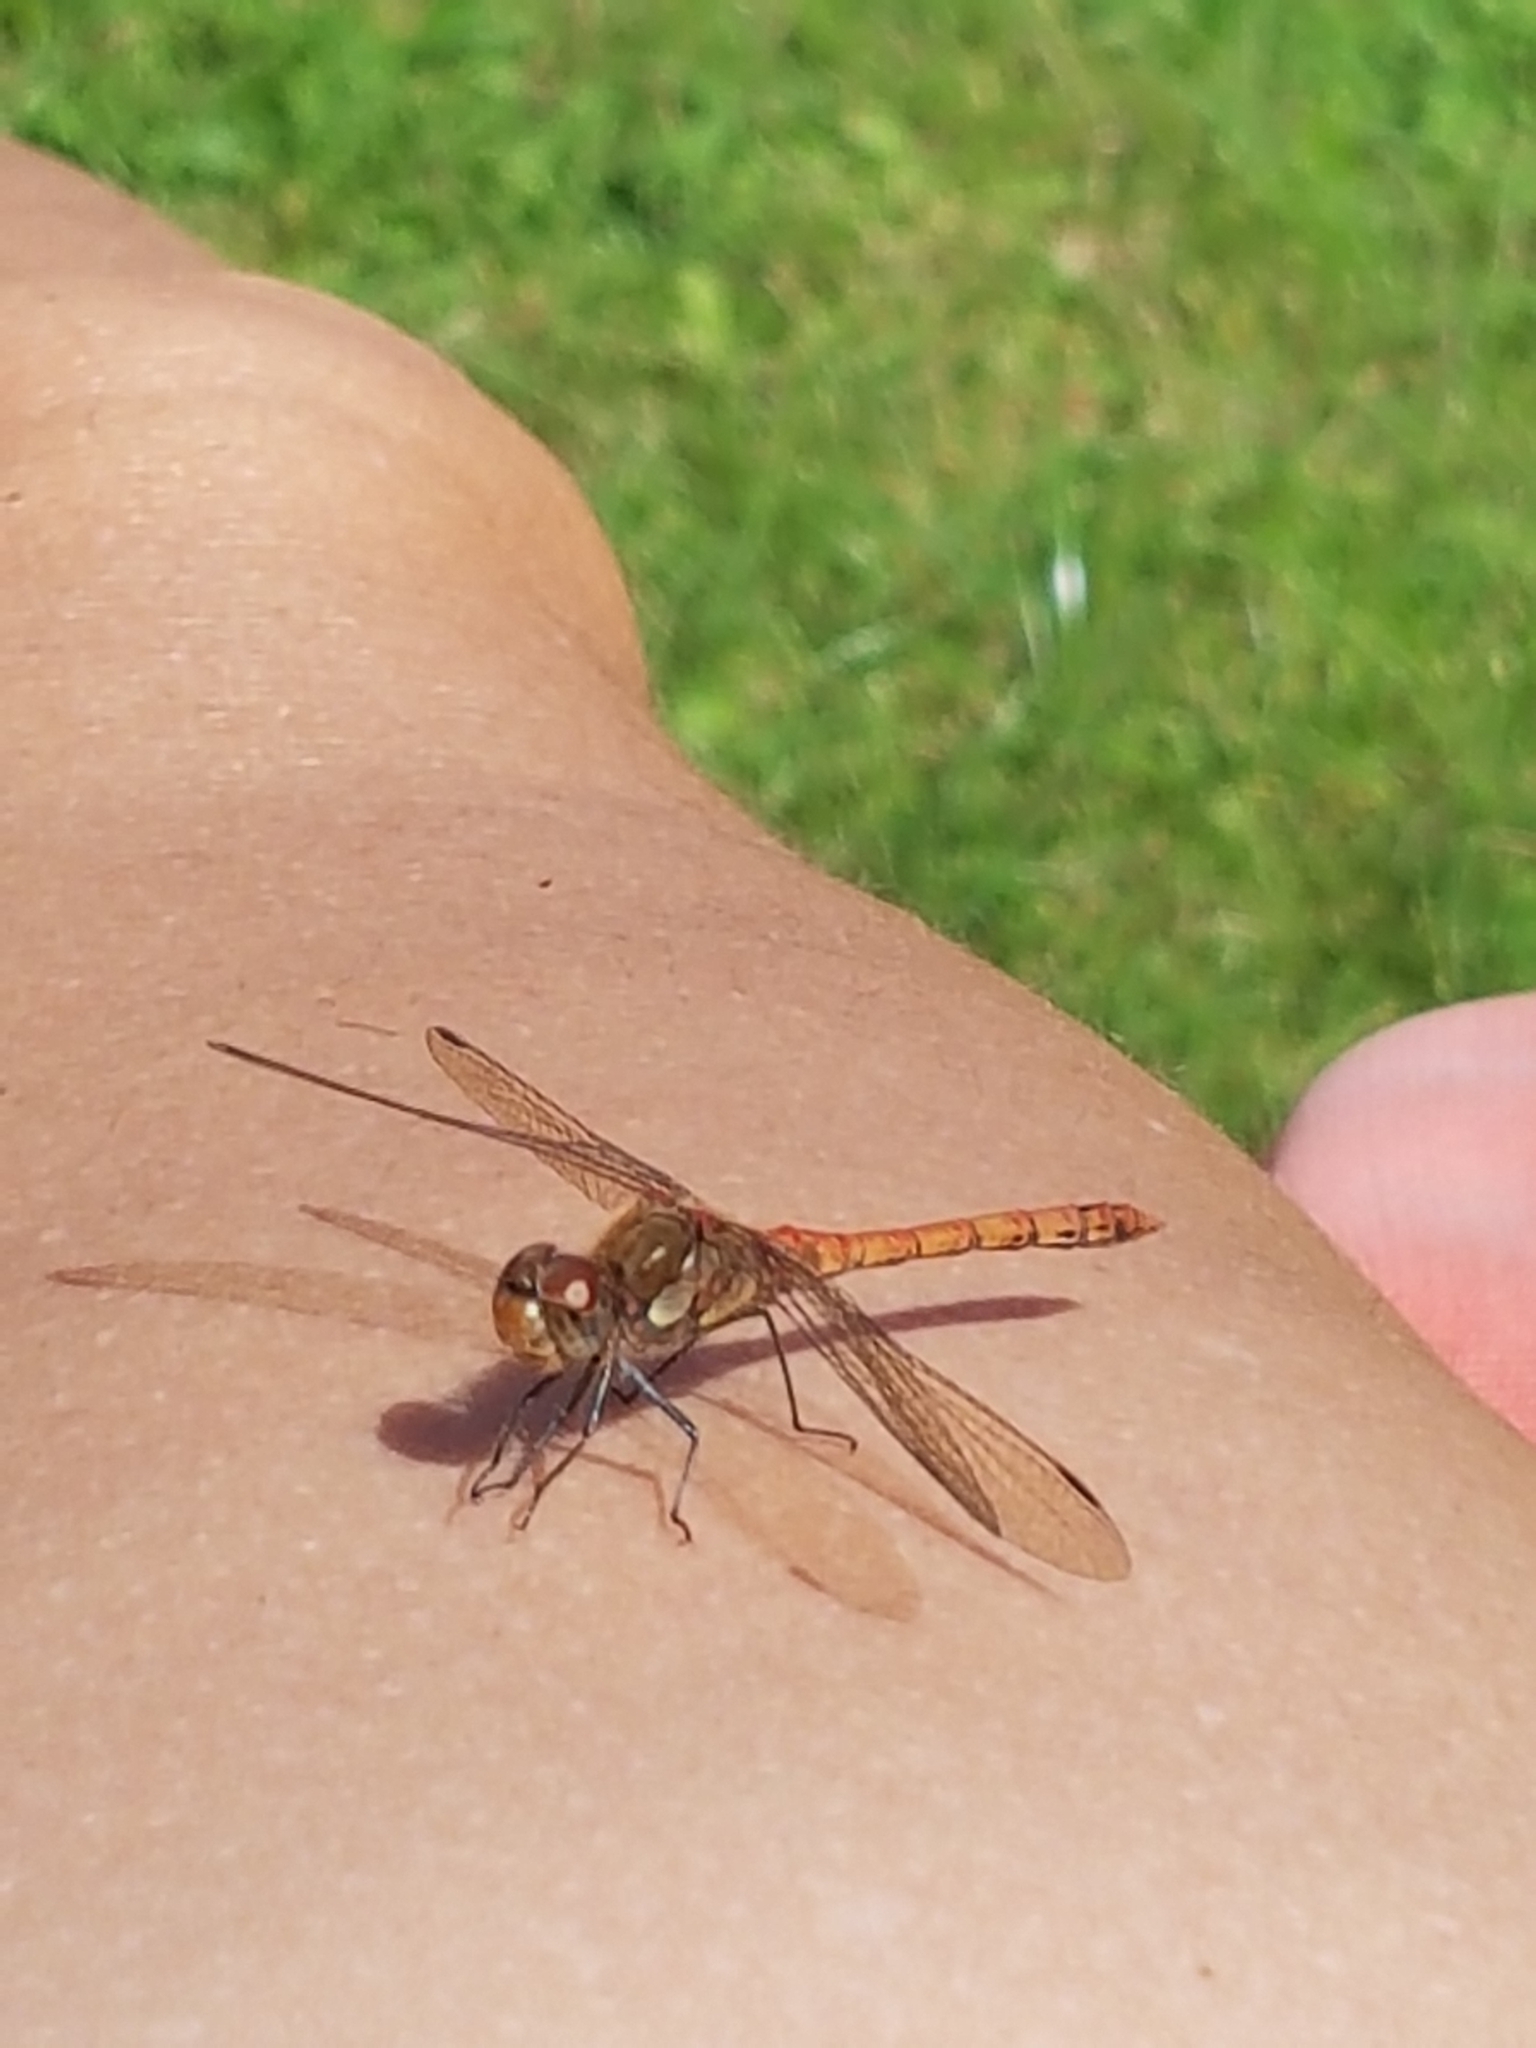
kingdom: Animalia
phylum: Arthropoda
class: Insecta
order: Odonata
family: Libellulidae
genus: Sympetrum
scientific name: Sympetrum striolatum
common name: Common darter
